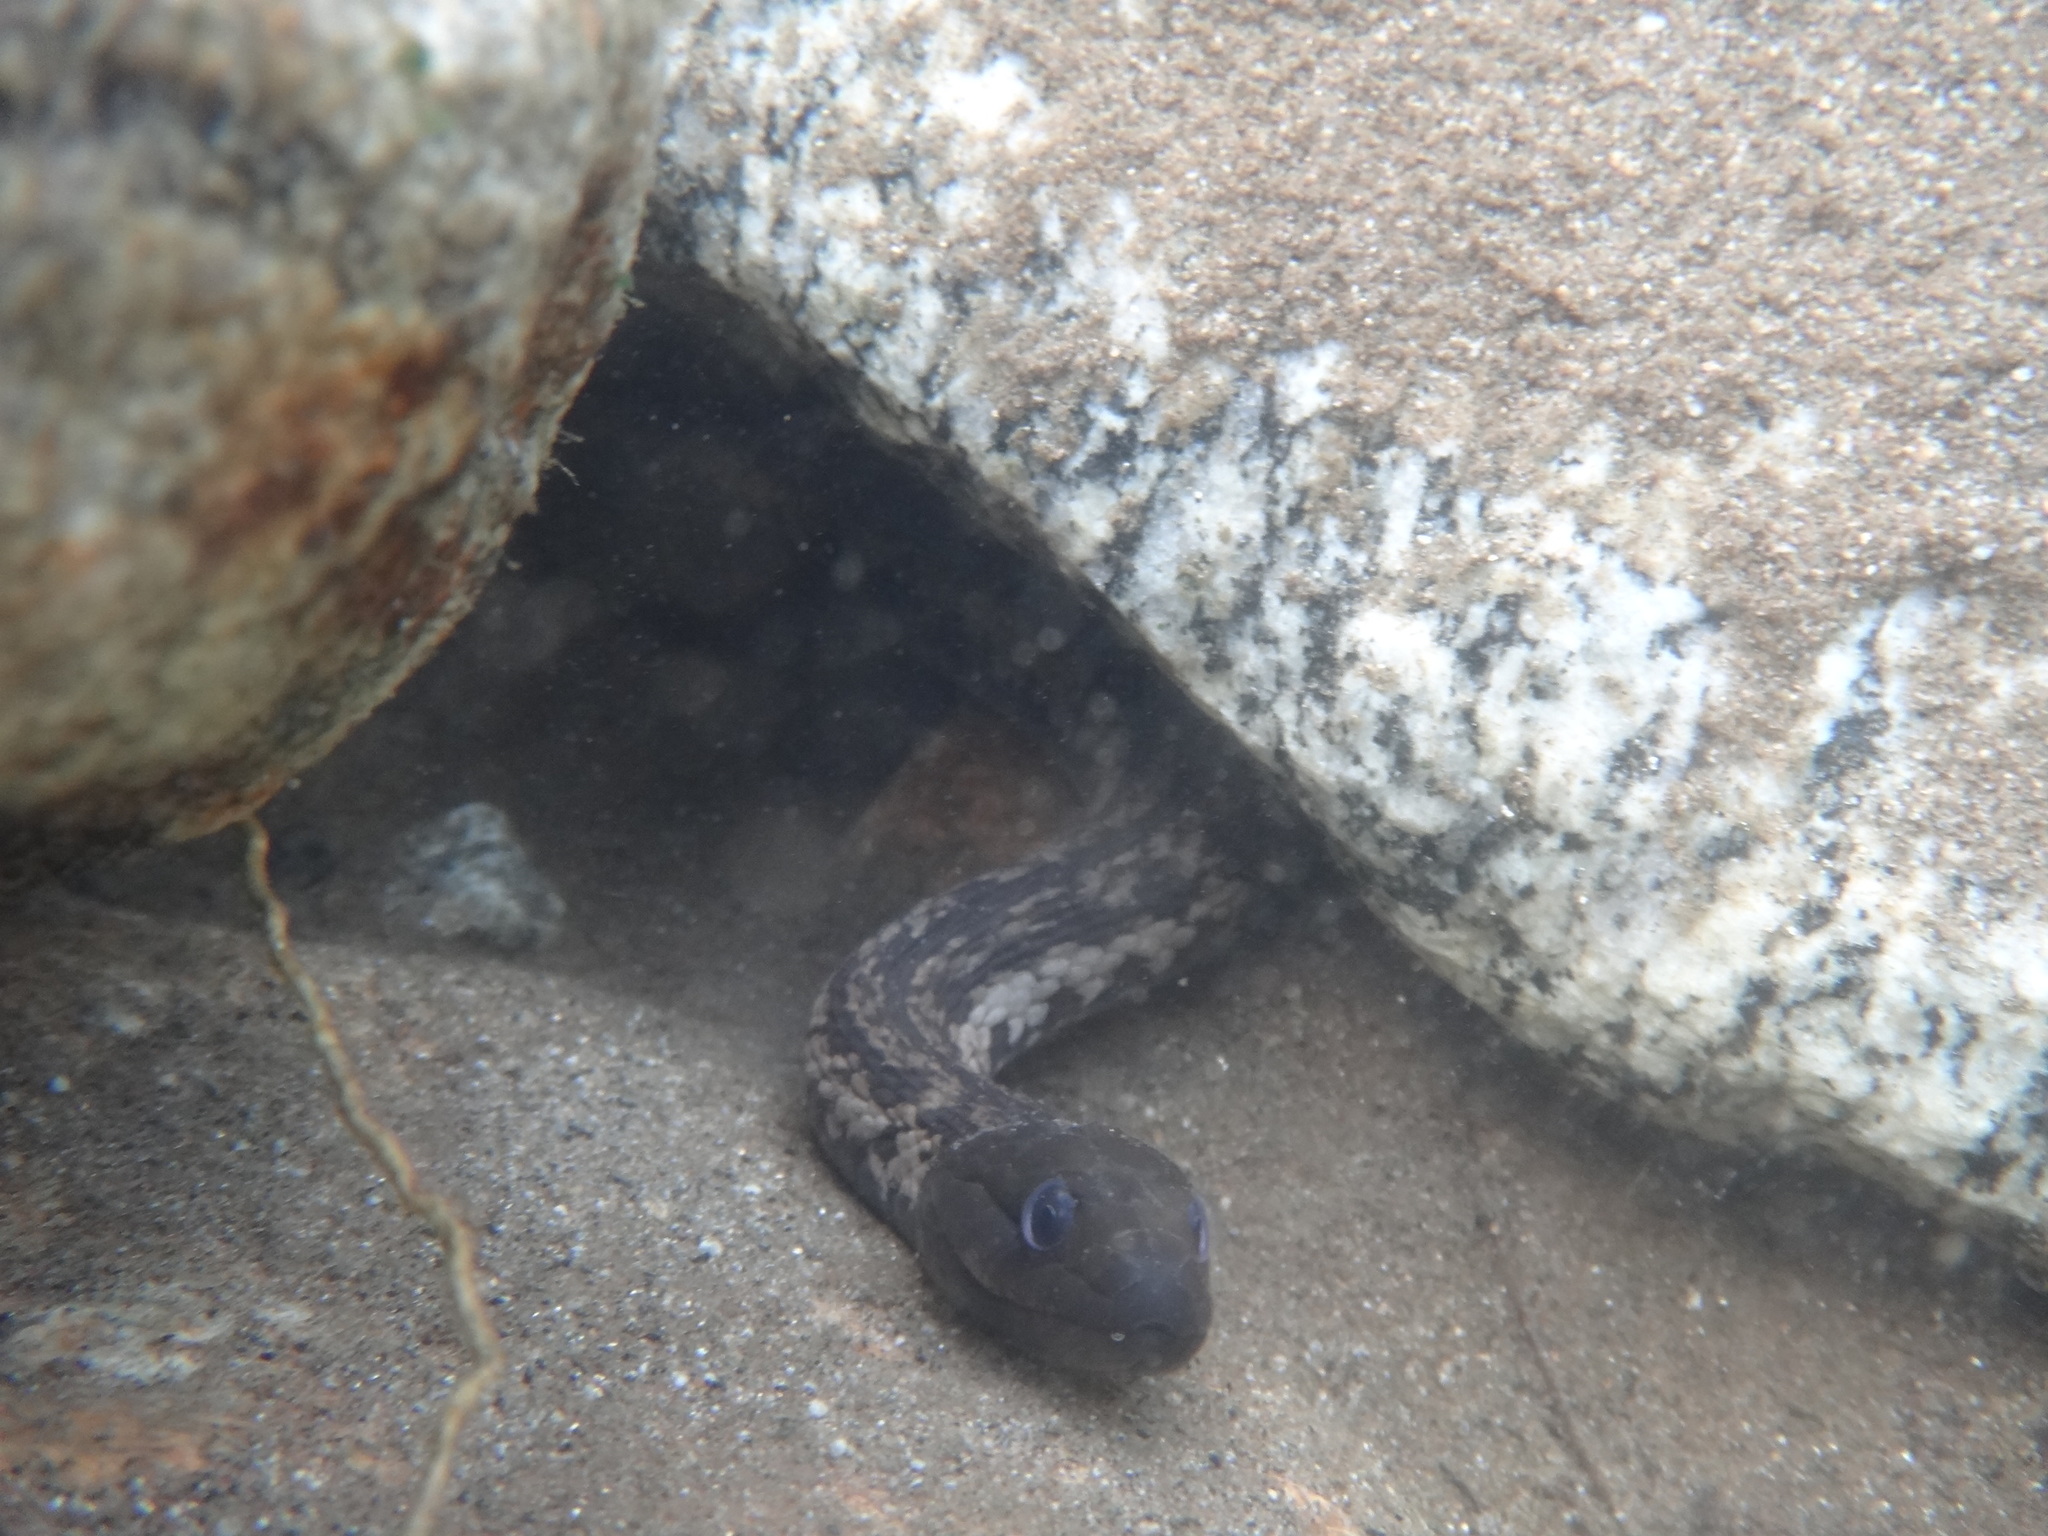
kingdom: Animalia
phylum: Chordata
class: Squamata
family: Colubridae
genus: Thamnophis
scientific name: Thamnophis validus
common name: West coast garter snake
